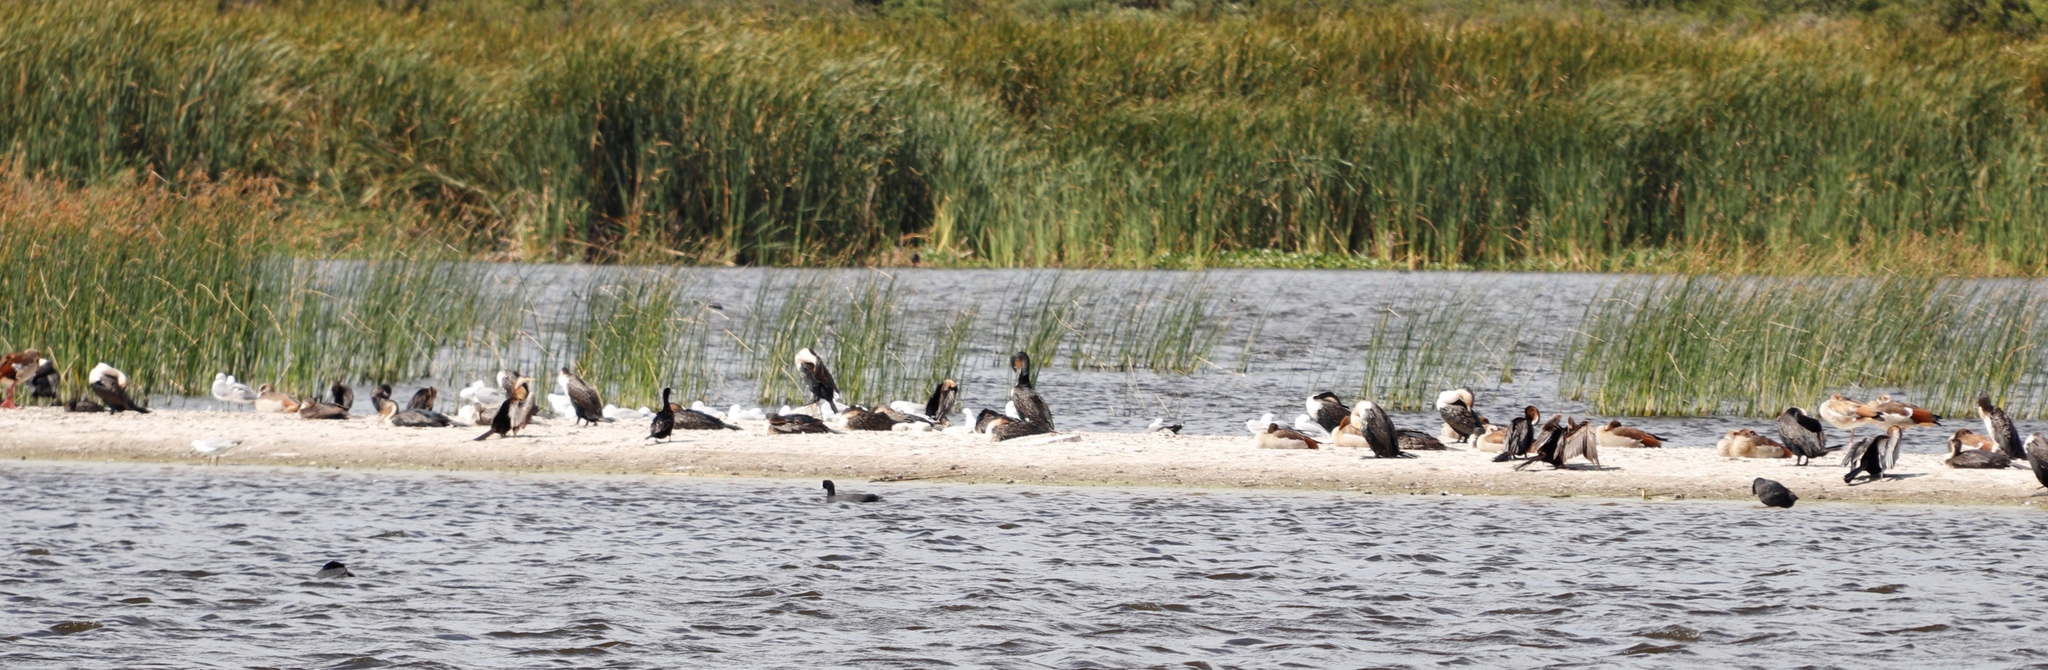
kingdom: Animalia
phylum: Chordata
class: Aves
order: Suliformes
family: Phalacrocoracidae
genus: Phalacrocorax
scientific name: Phalacrocorax carbo
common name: Great cormorant
